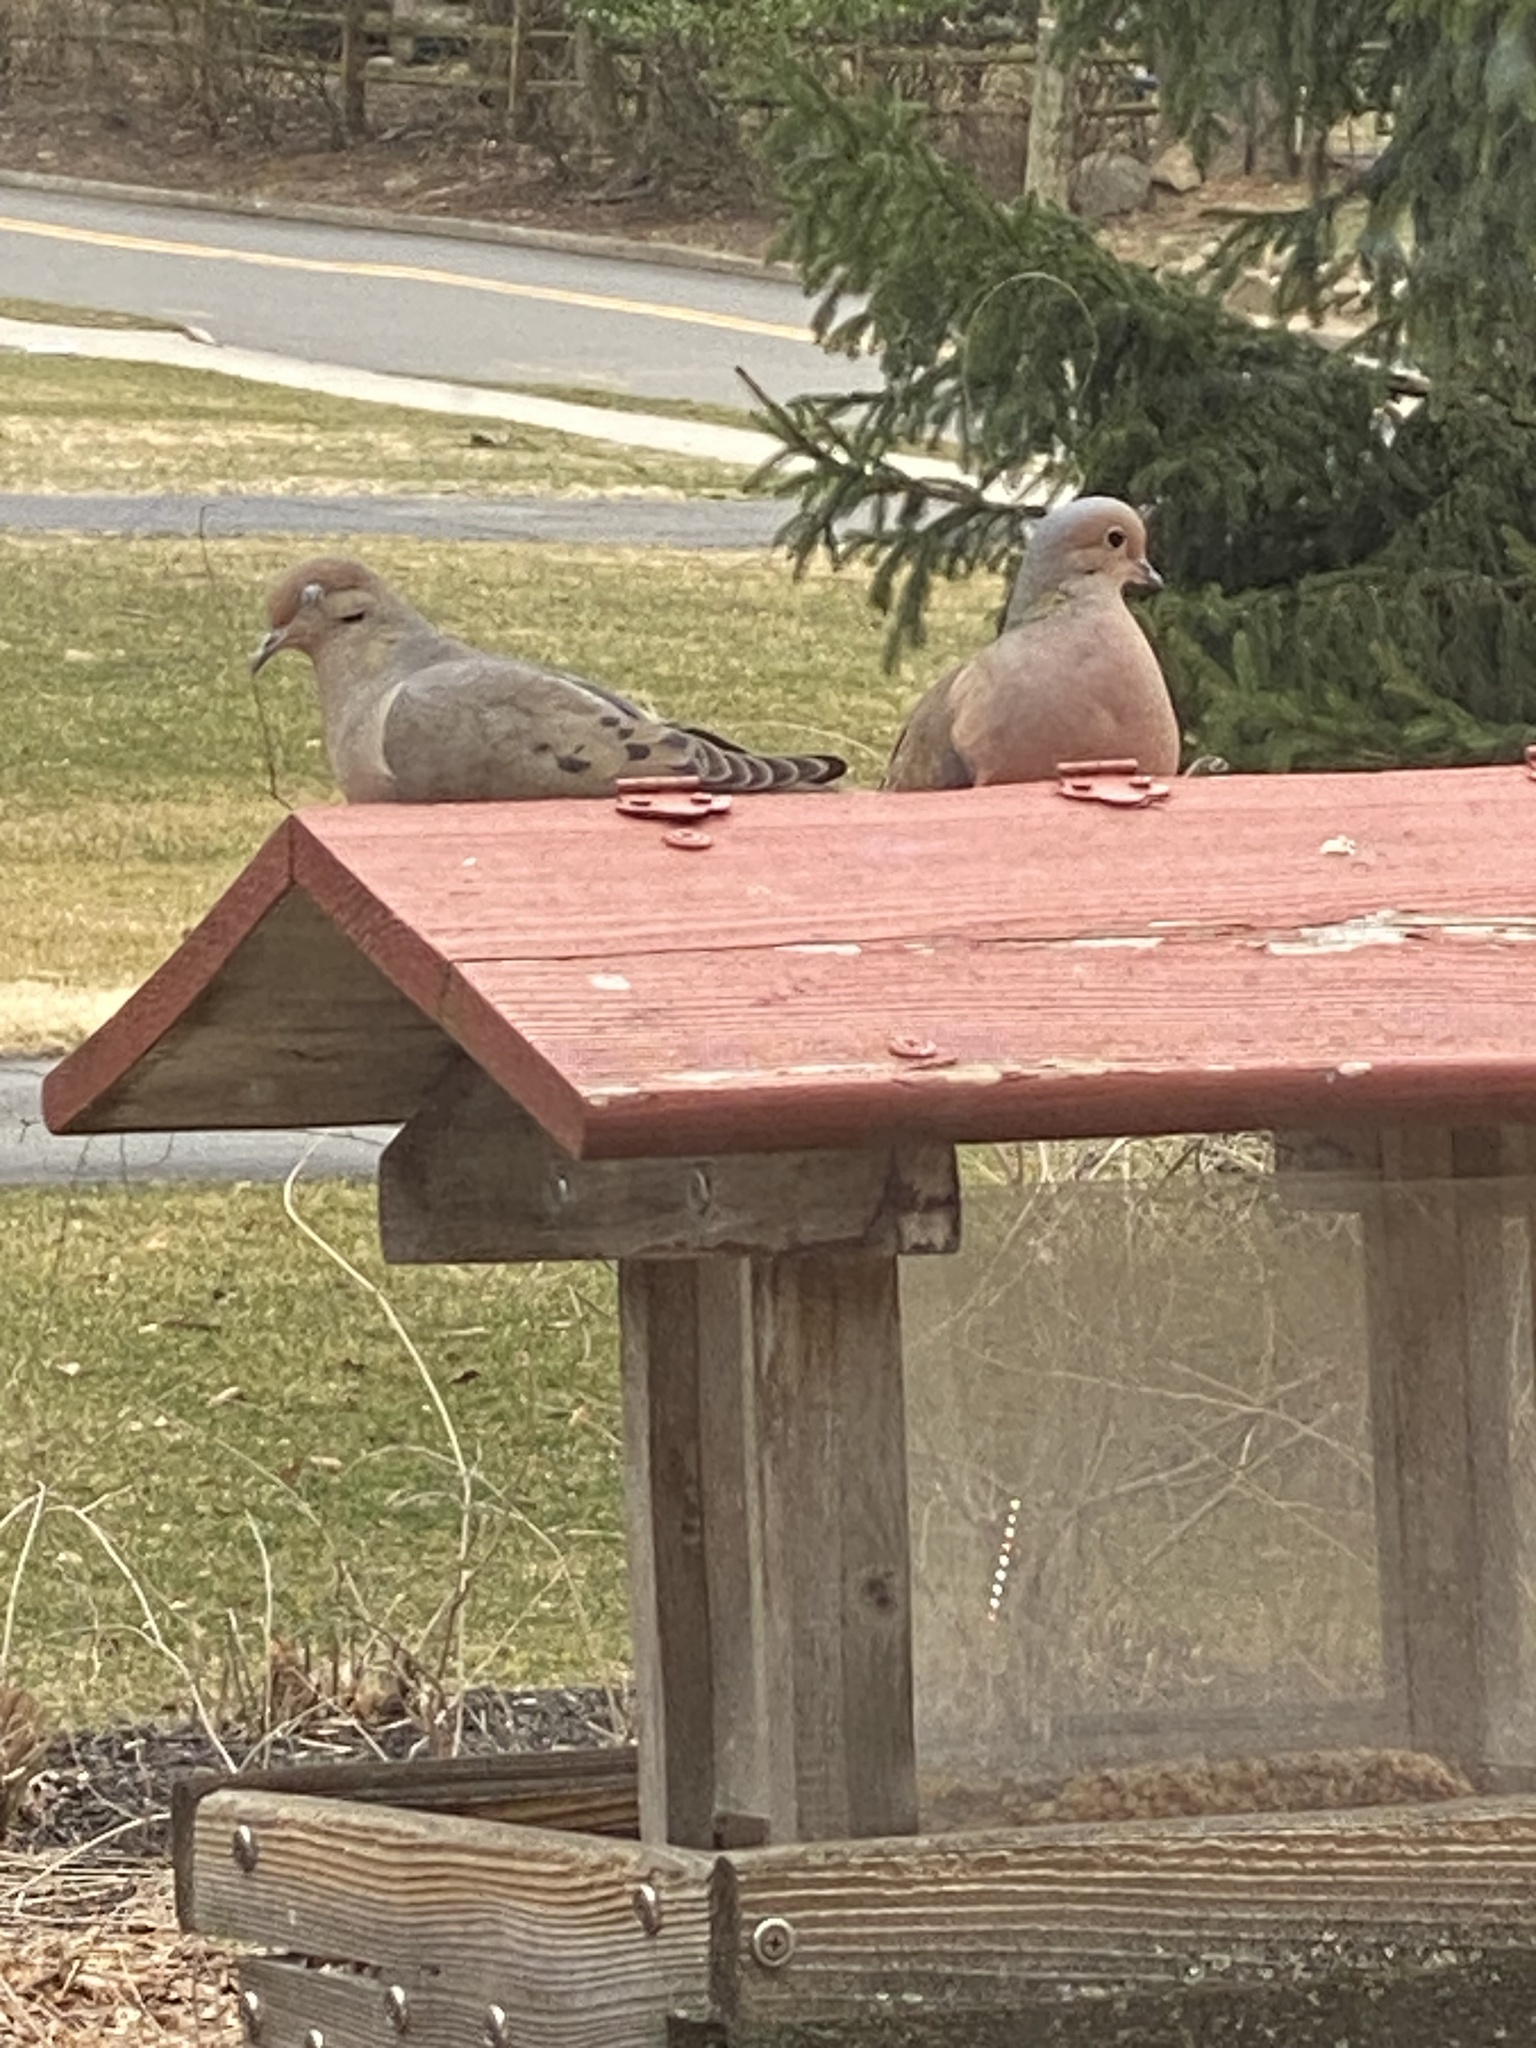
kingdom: Animalia
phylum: Chordata
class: Aves
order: Columbiformes
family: Columbidae
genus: Zenaida
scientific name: Zenaida macroura
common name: Mourning dove
